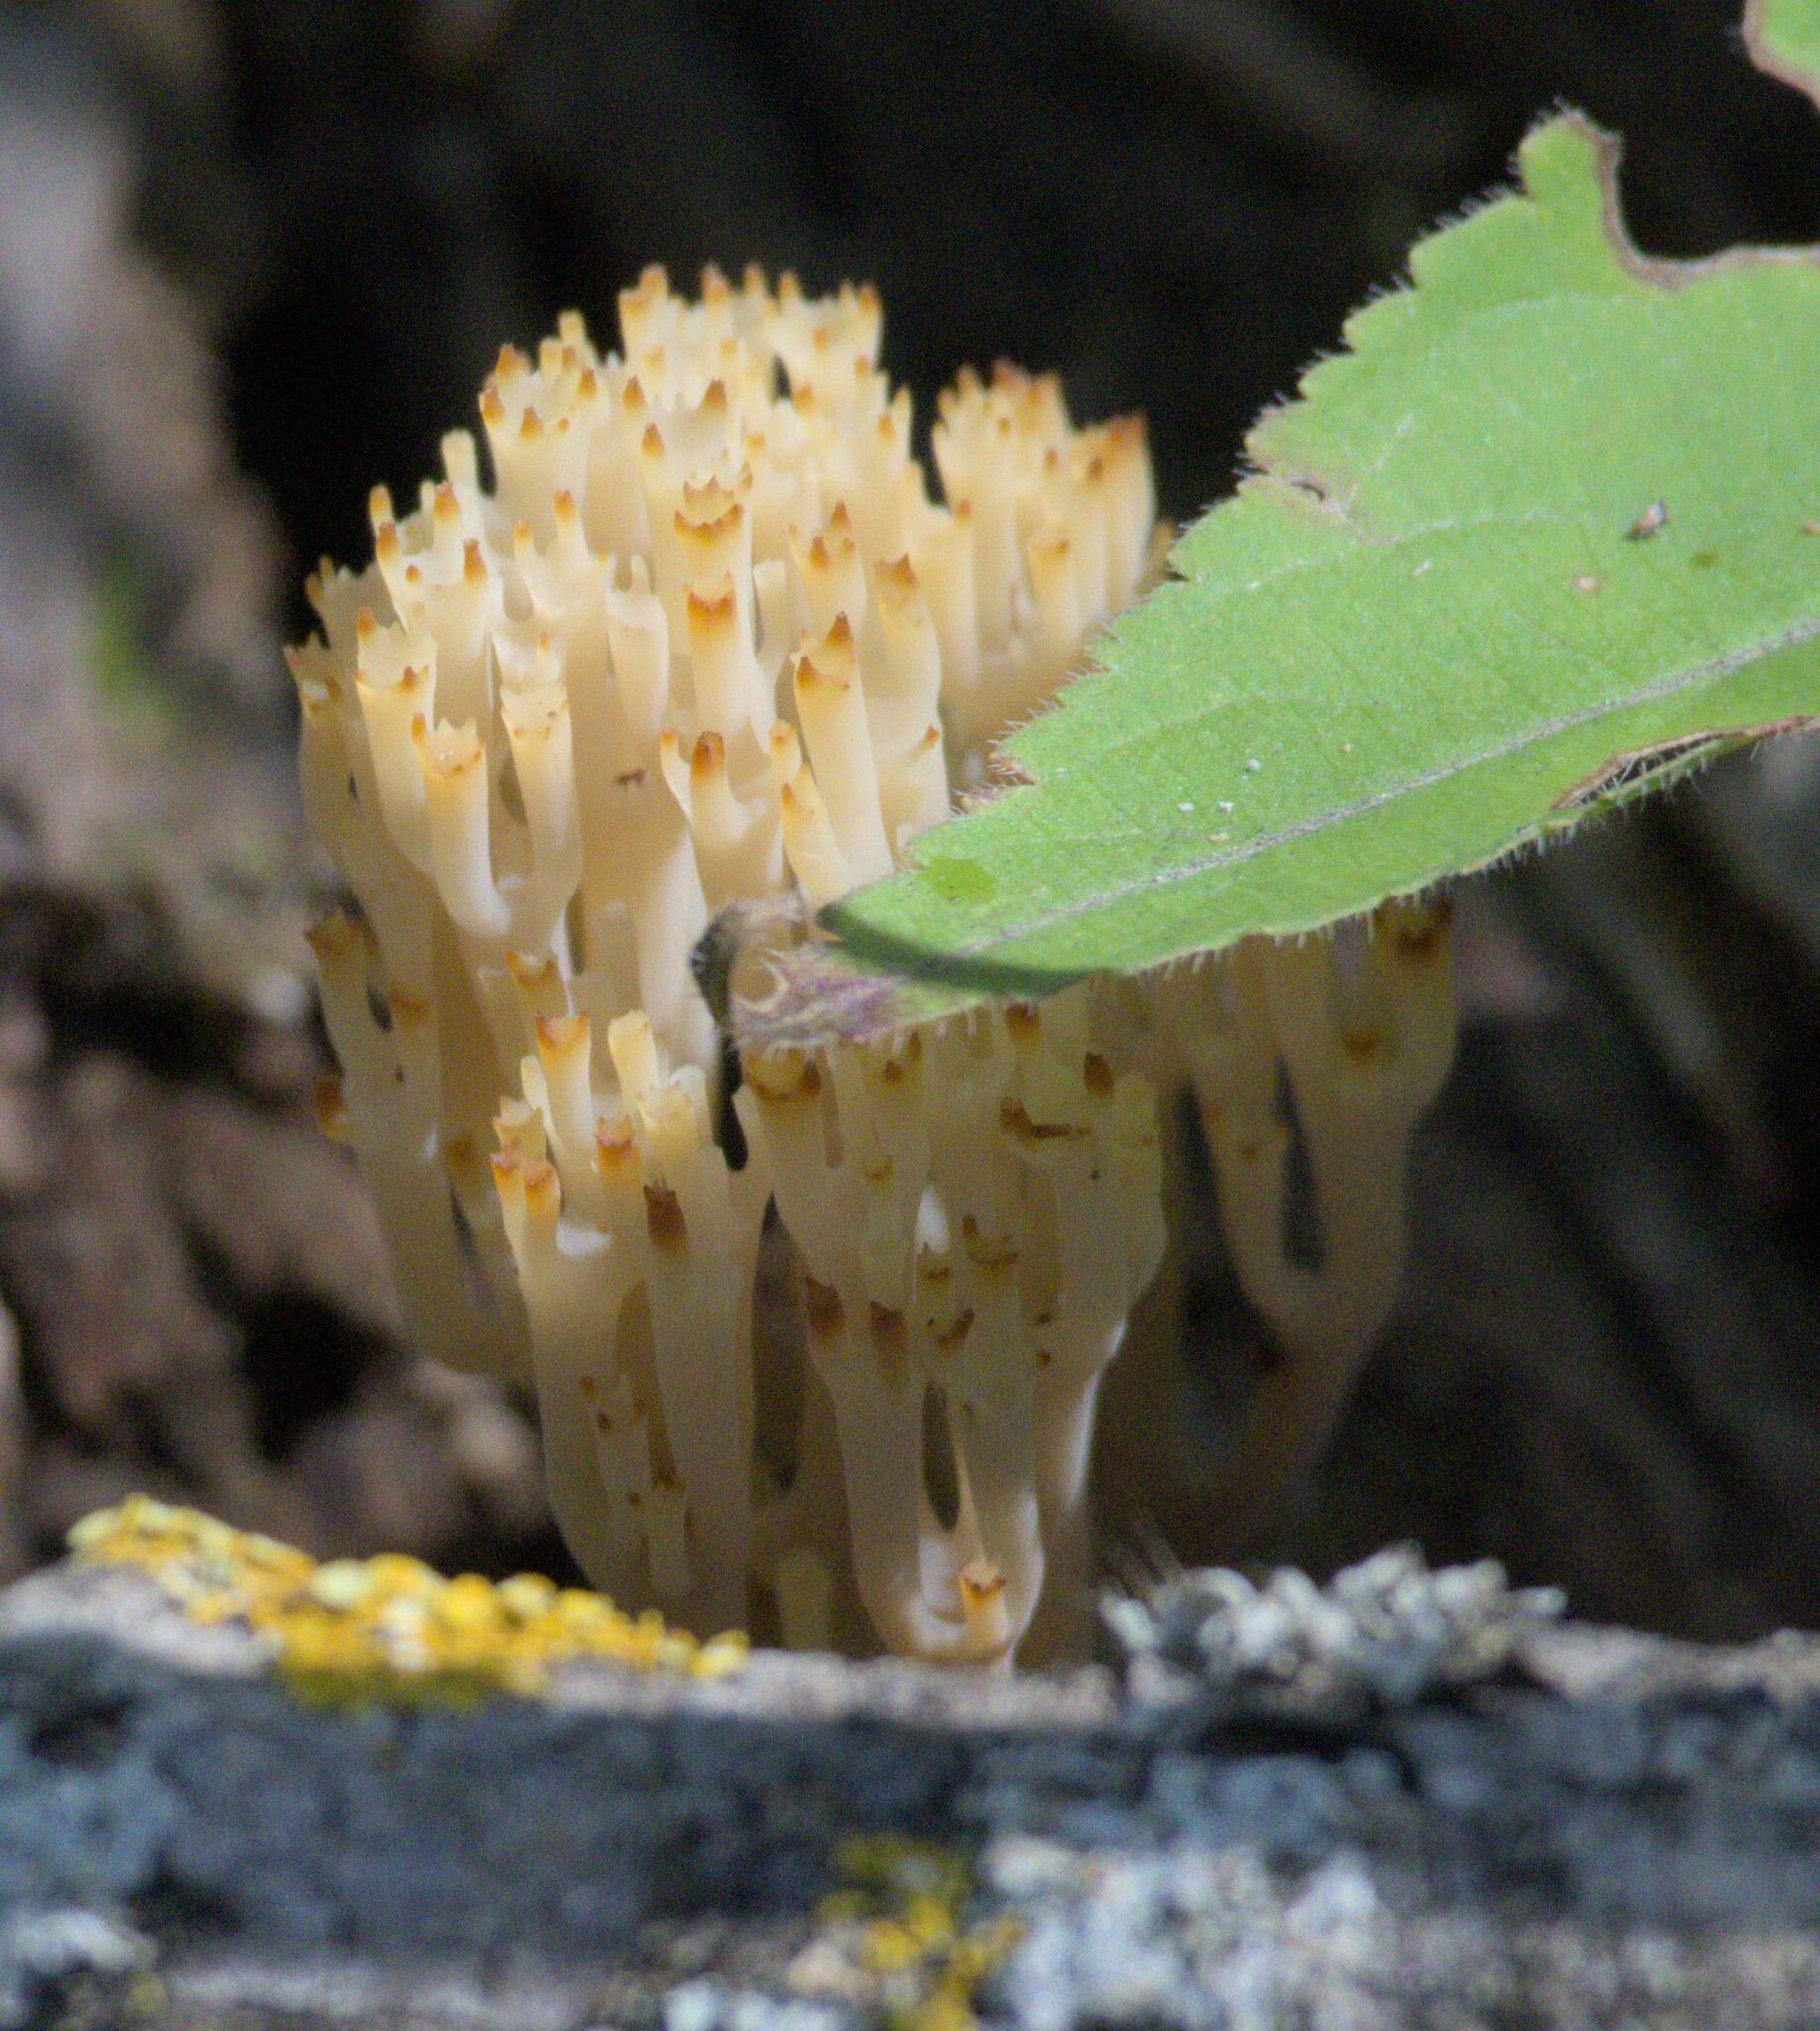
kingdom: Fungi
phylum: Basidiomycota
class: Agaricomycetes
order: Russulales
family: Auriscalpiaceae
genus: Artomyces
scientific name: Artomyces pyxidatus
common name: Crown-tipped coral fungus
